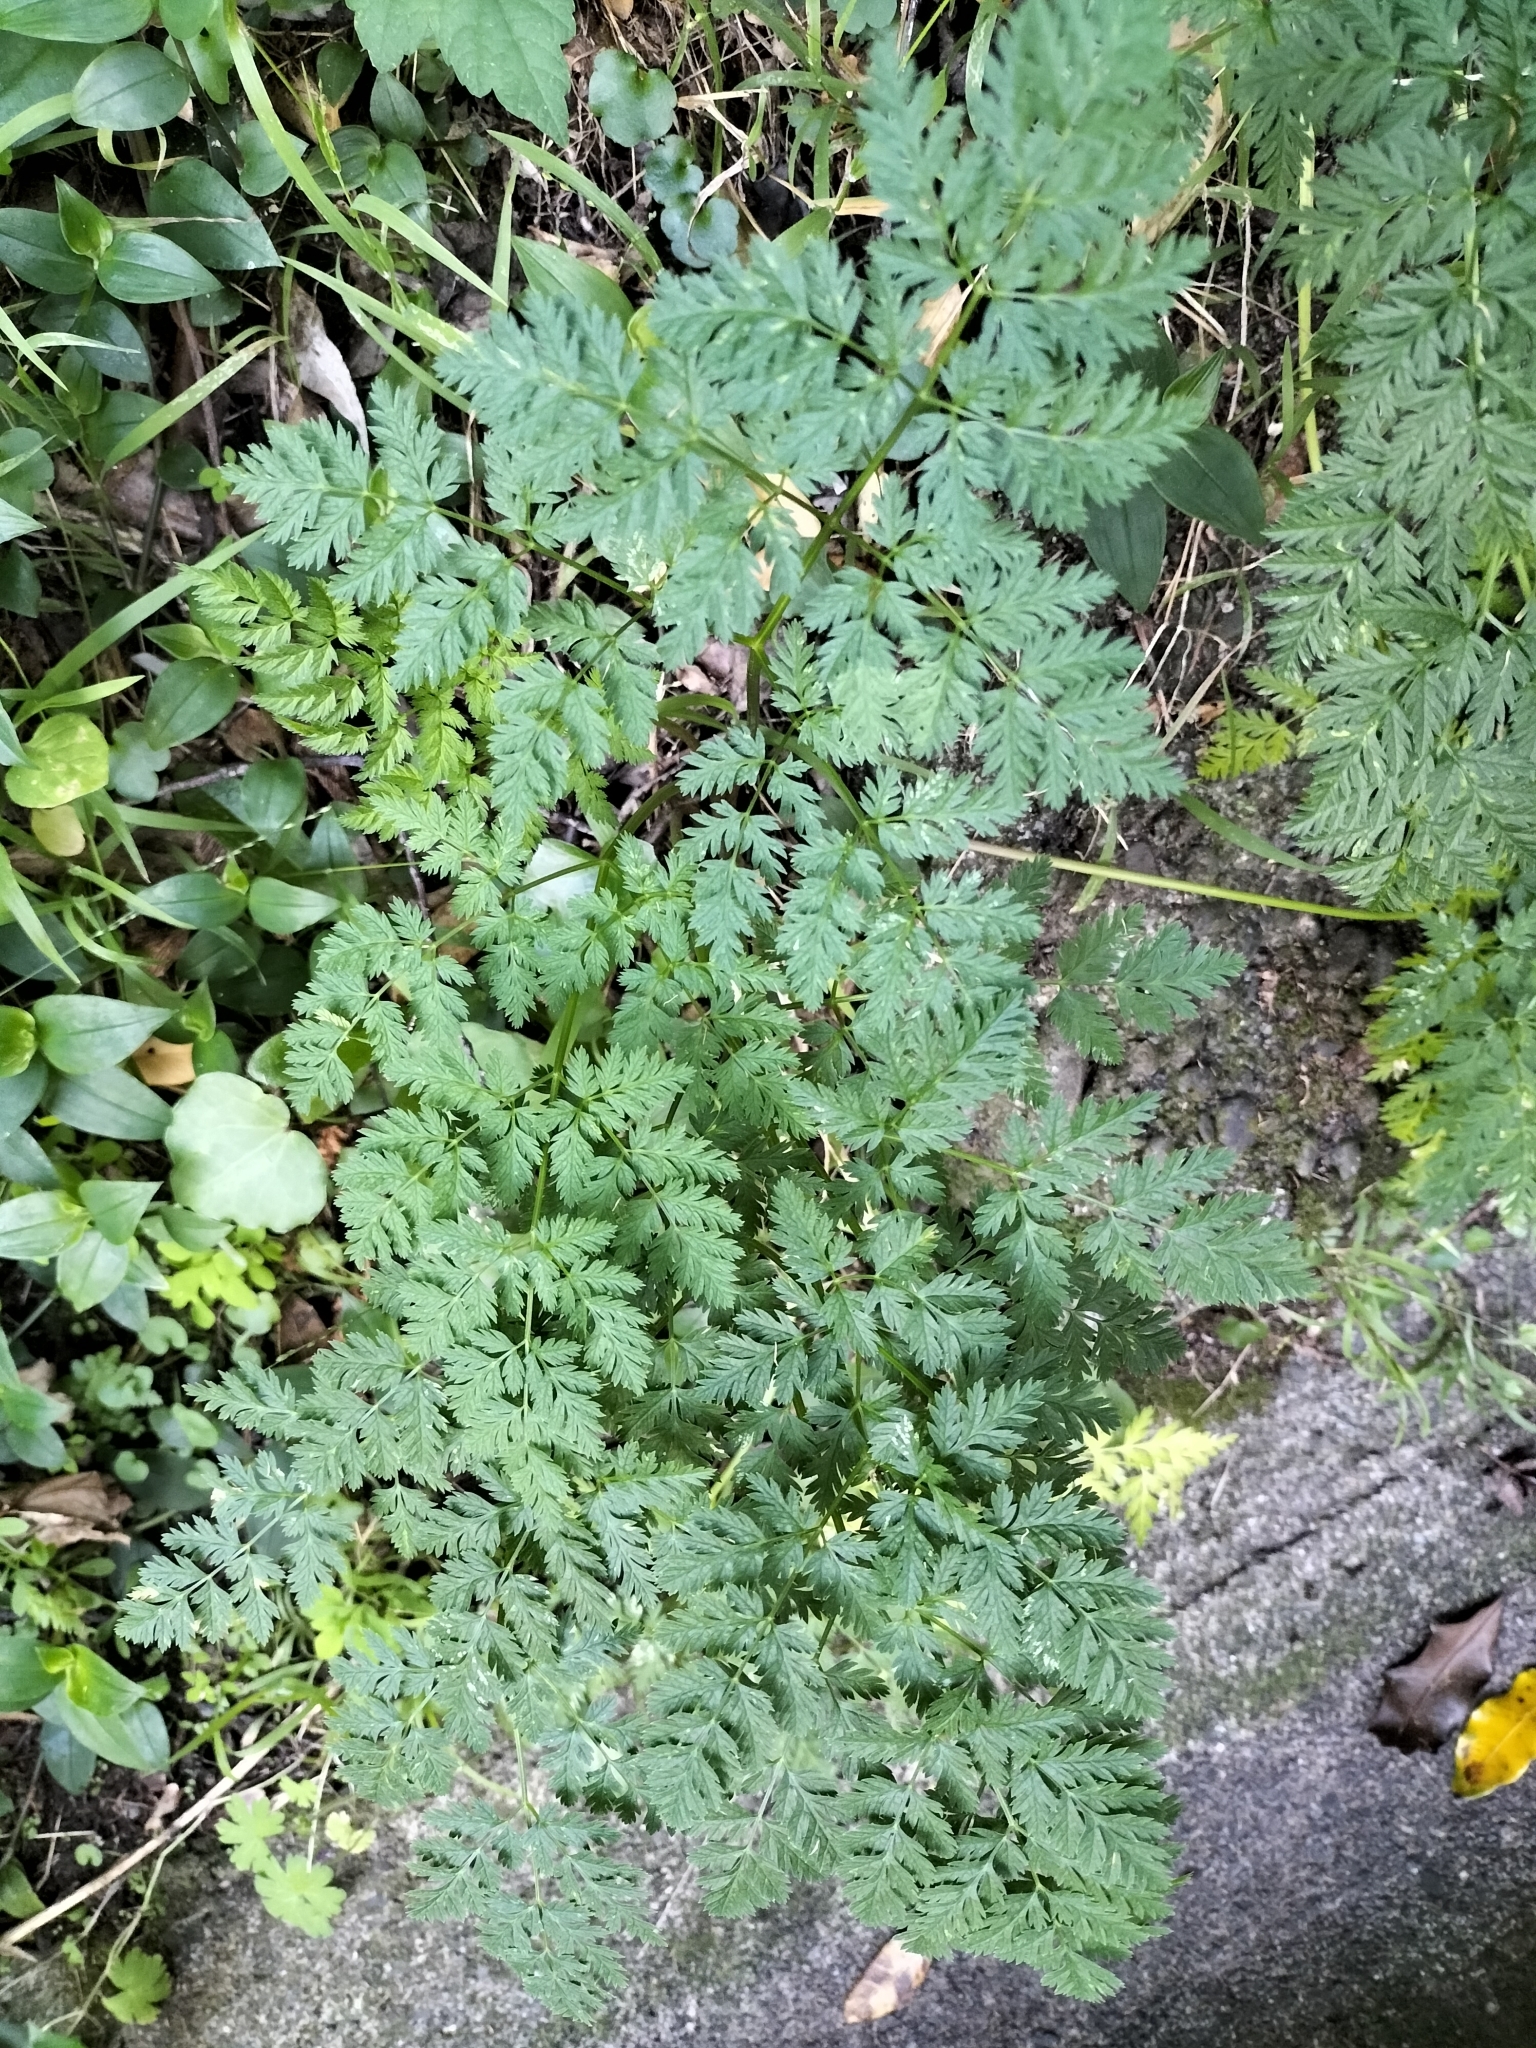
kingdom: Plantae
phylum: Tracheophyta
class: Magnoliopsida
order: Apiales
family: Apiaceae
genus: Conium
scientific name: Conium maculatum
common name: Hemlock
